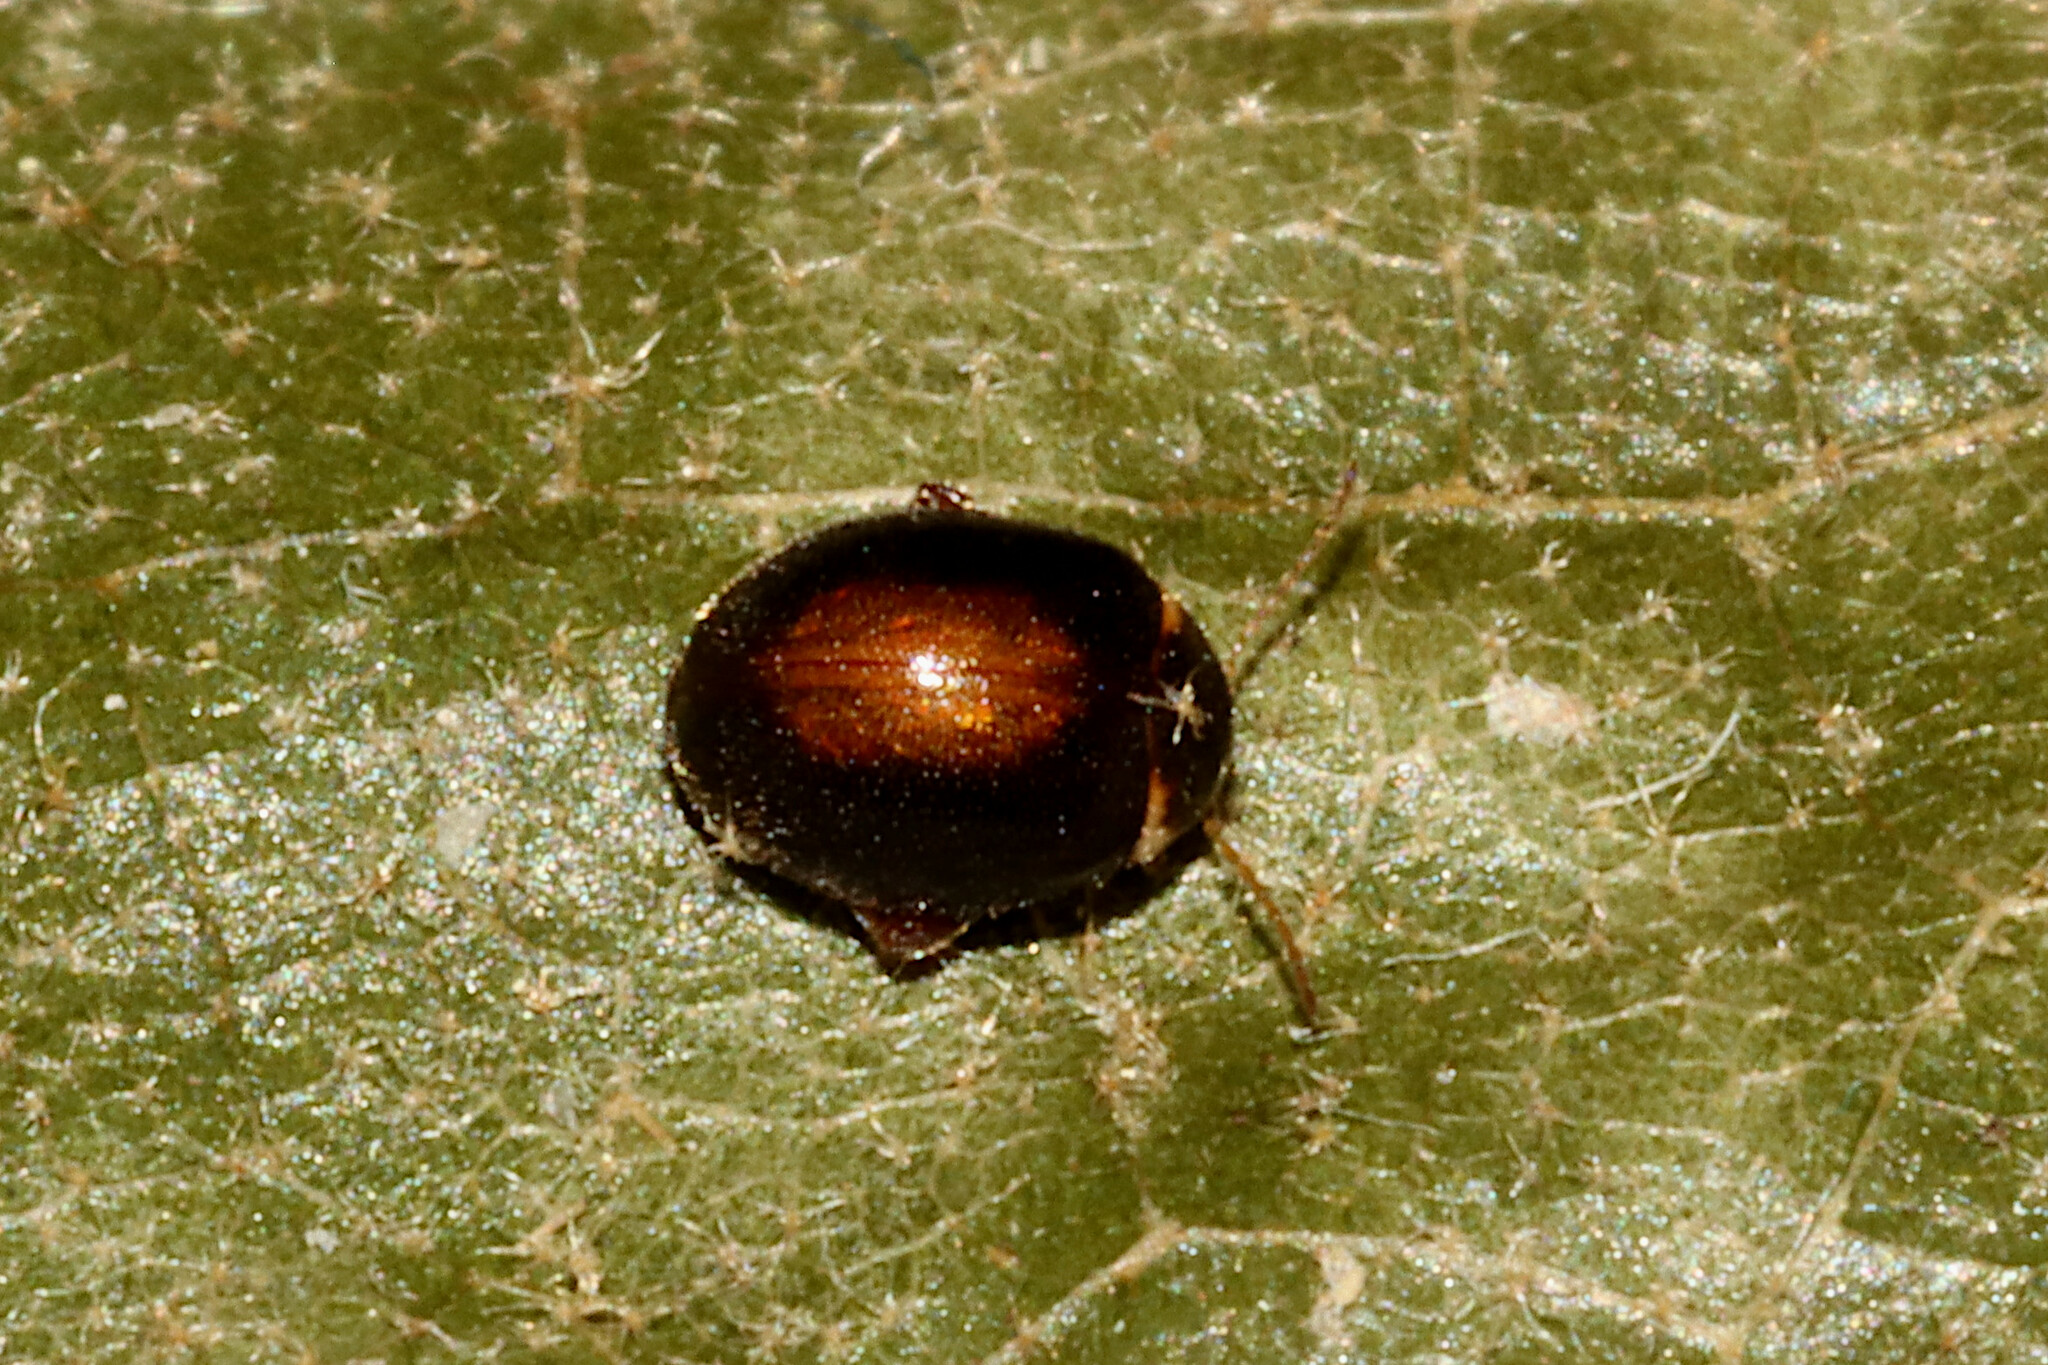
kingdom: Animalia
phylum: Arthropoda
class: Insecta
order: Coleoptera
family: Scirtidae
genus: Scirtes
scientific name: Scirtes orbiculatus
